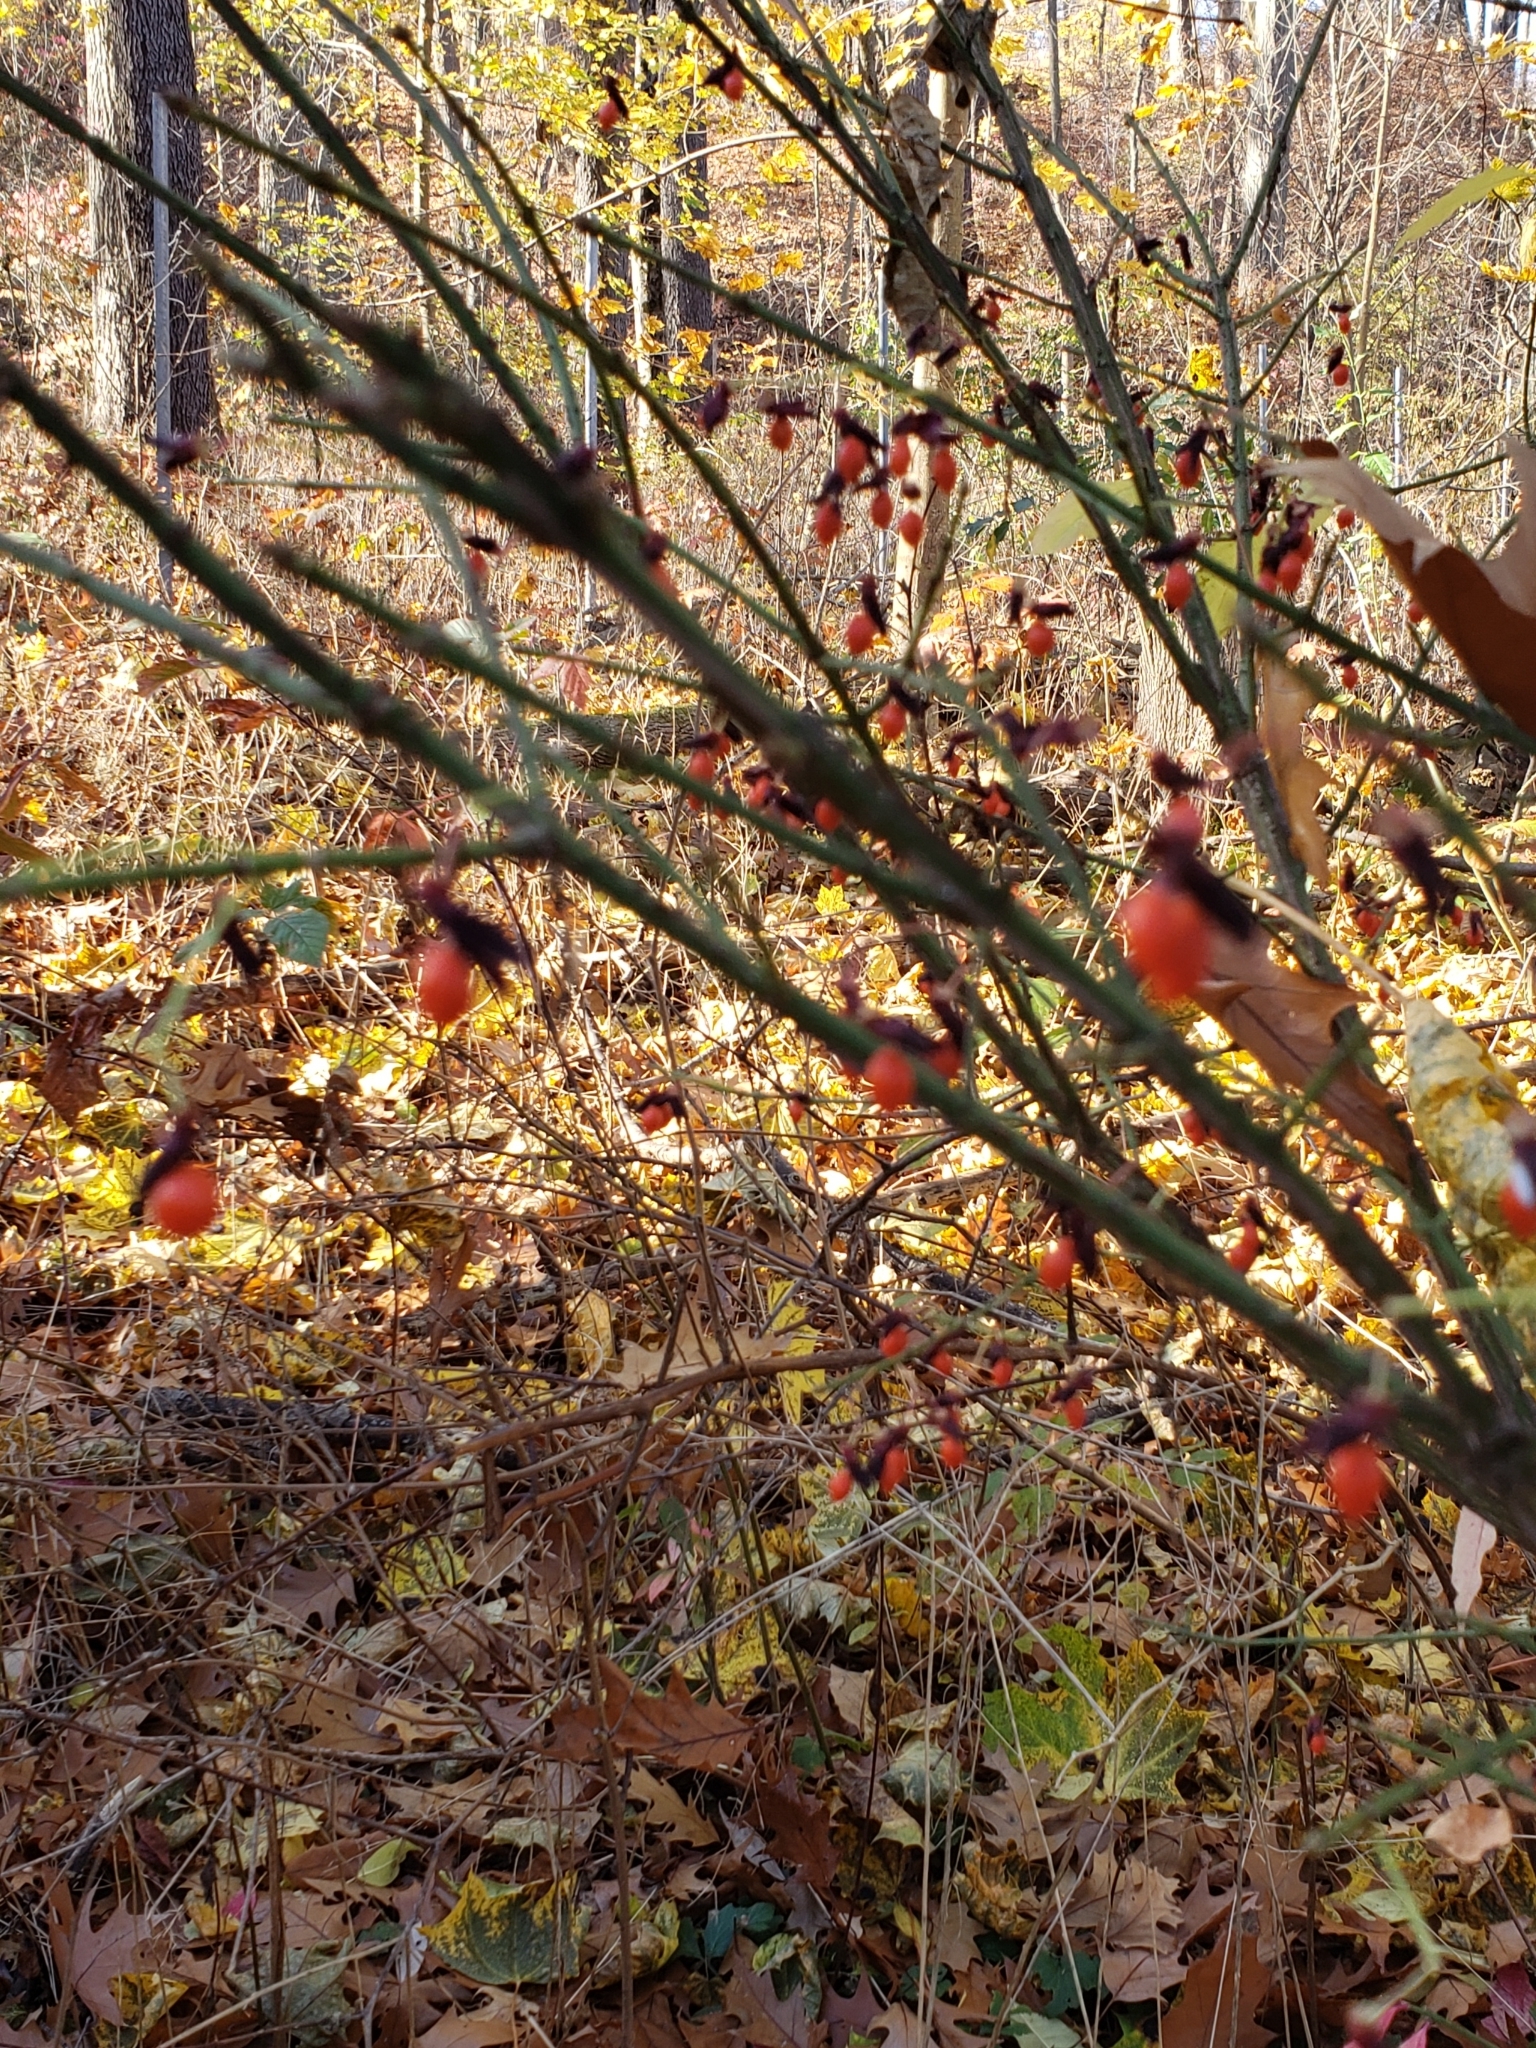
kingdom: Plantae
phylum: Tracheophyta
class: Magnoliopsida
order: Celastrales
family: Celastraceae
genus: Euonymus
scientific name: Euonymus alatus
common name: Winged euonymus
